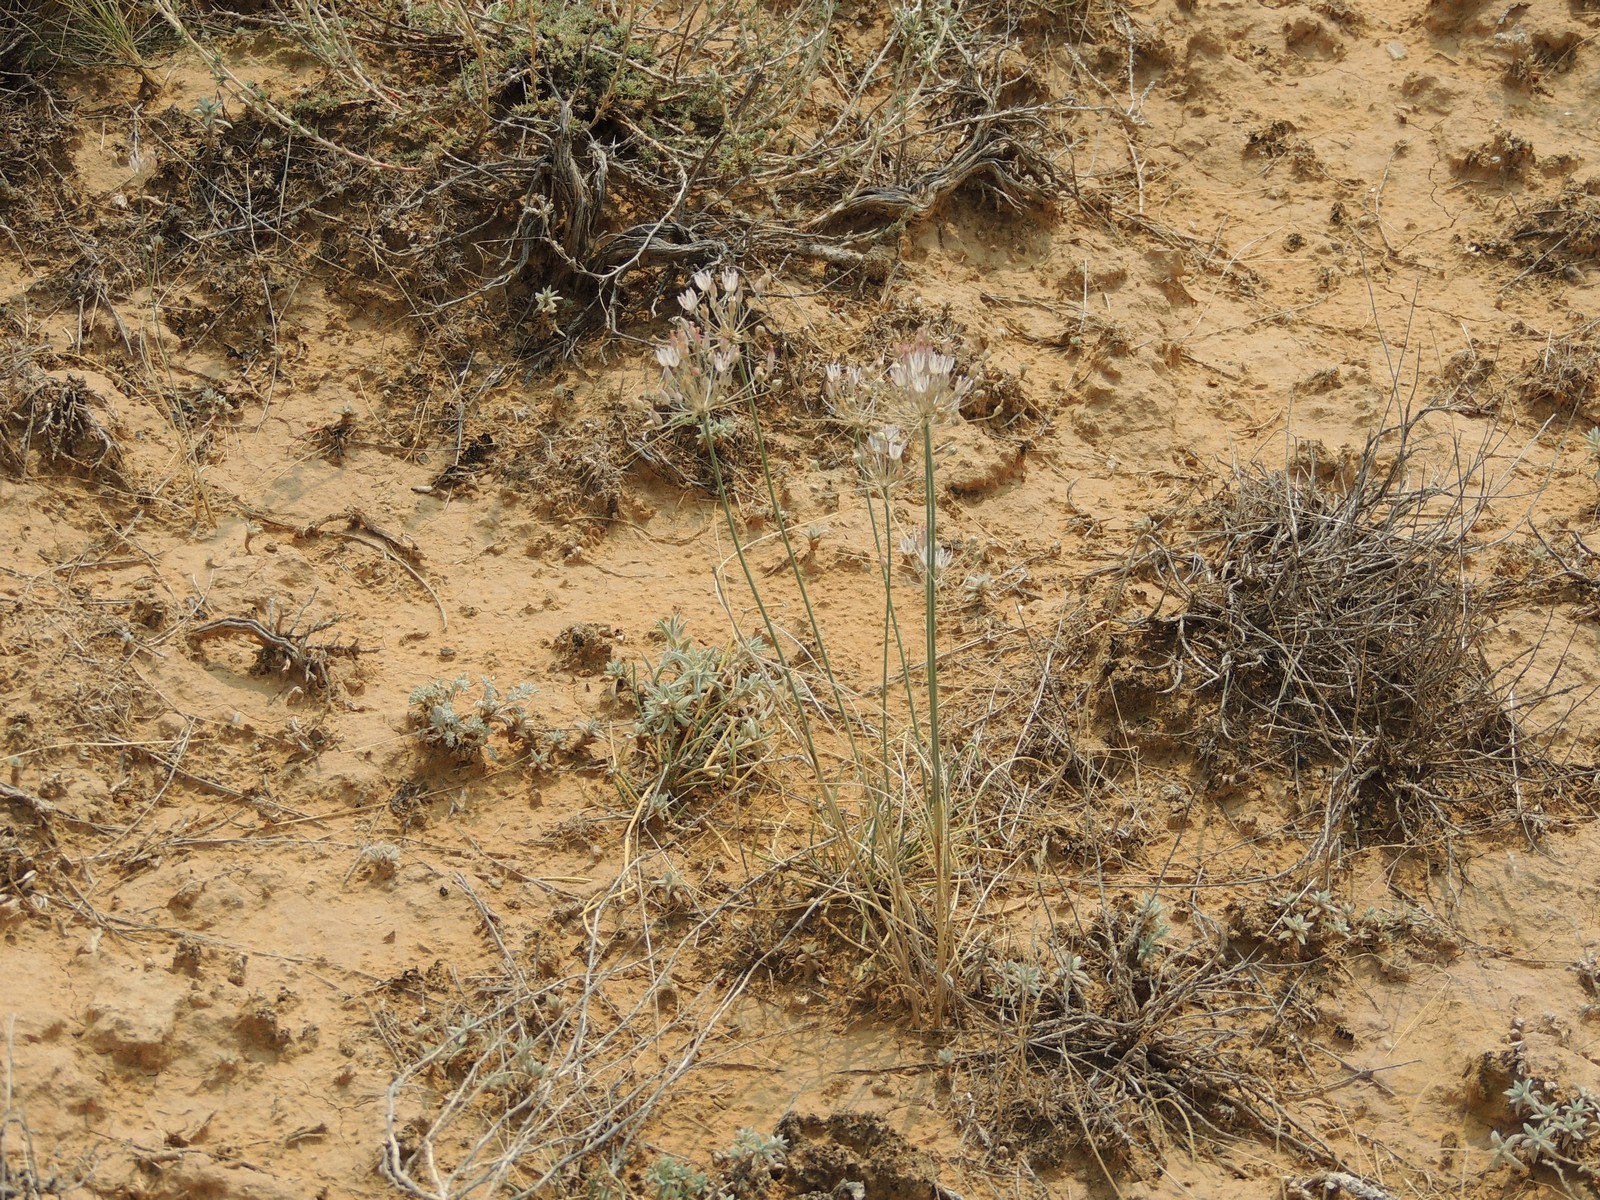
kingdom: Plantae
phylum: Tracheophyta
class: Liliopsida
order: Asparagales
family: Amaryllidaceae
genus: Allium
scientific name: Allium inaequale
